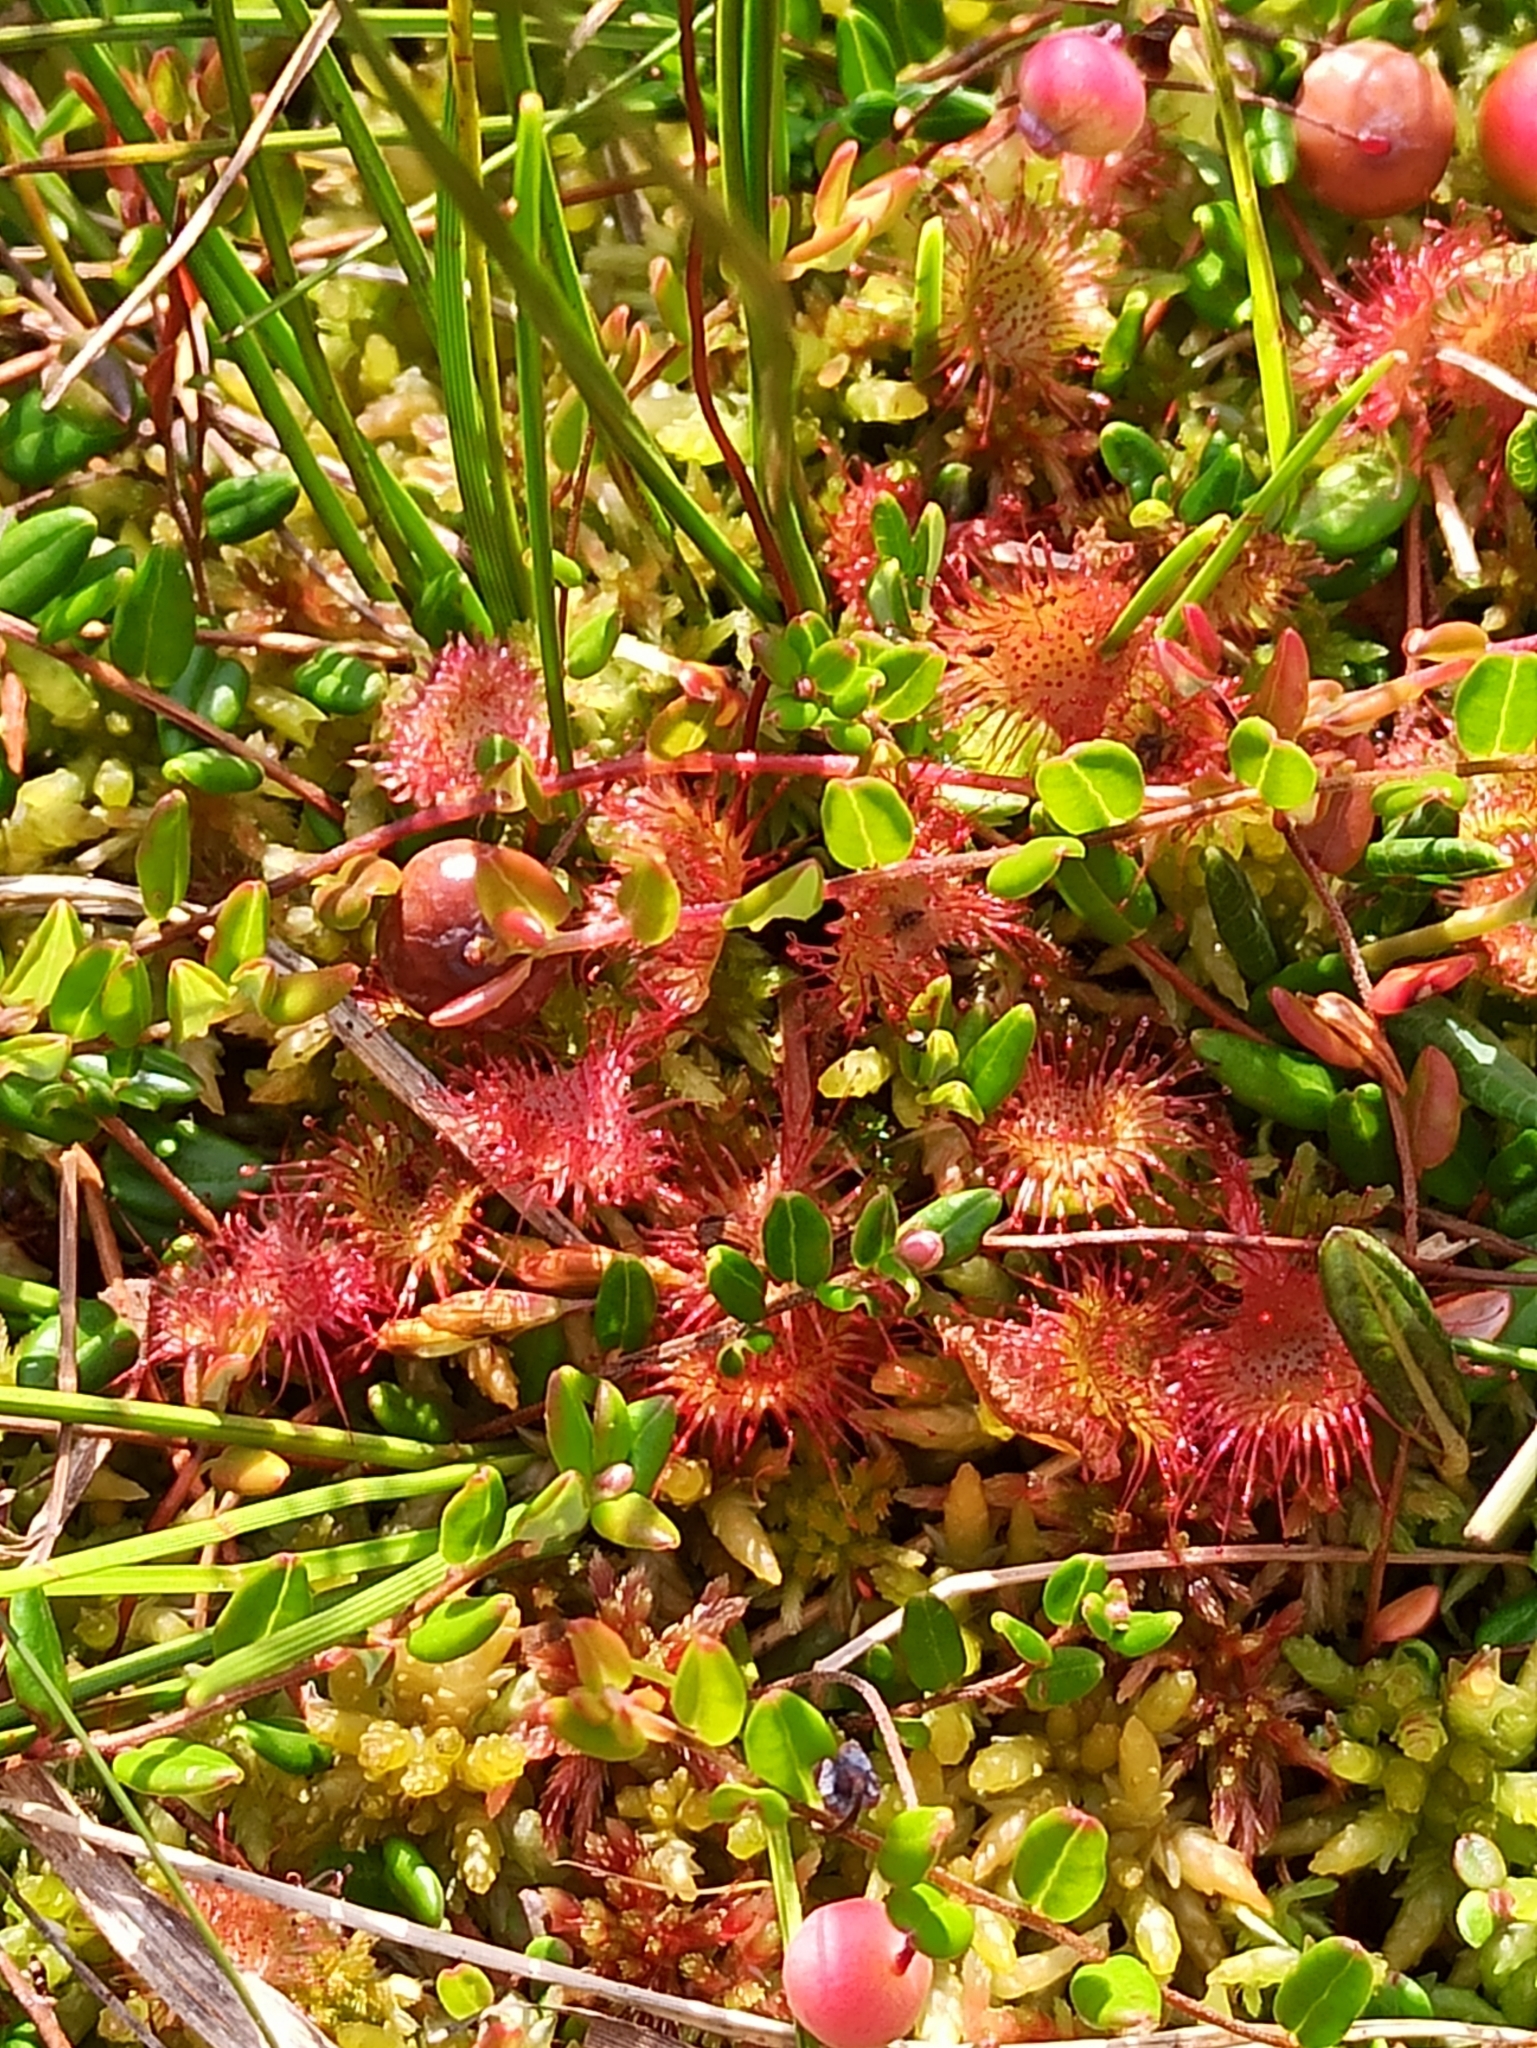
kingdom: Plantae
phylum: Tracheophyta
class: Magnoliopsida
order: Caryophyllales
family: Droseraceae
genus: Drosera
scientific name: Drosera rotundifolia
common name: Round-leaved sundew
